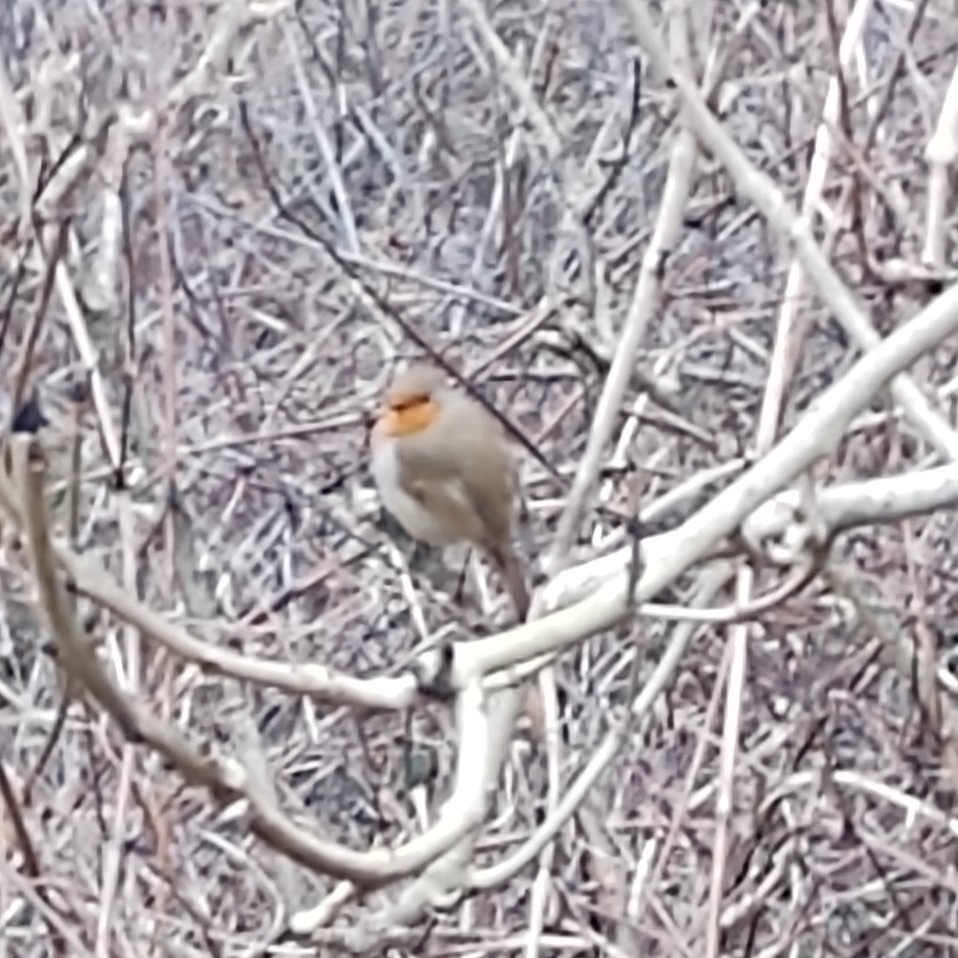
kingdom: Animalia
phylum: Chordata
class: Aves
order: Passeriformes
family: Muscicapidae
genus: Erithacus
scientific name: Erithacus rubecula
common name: European robin
